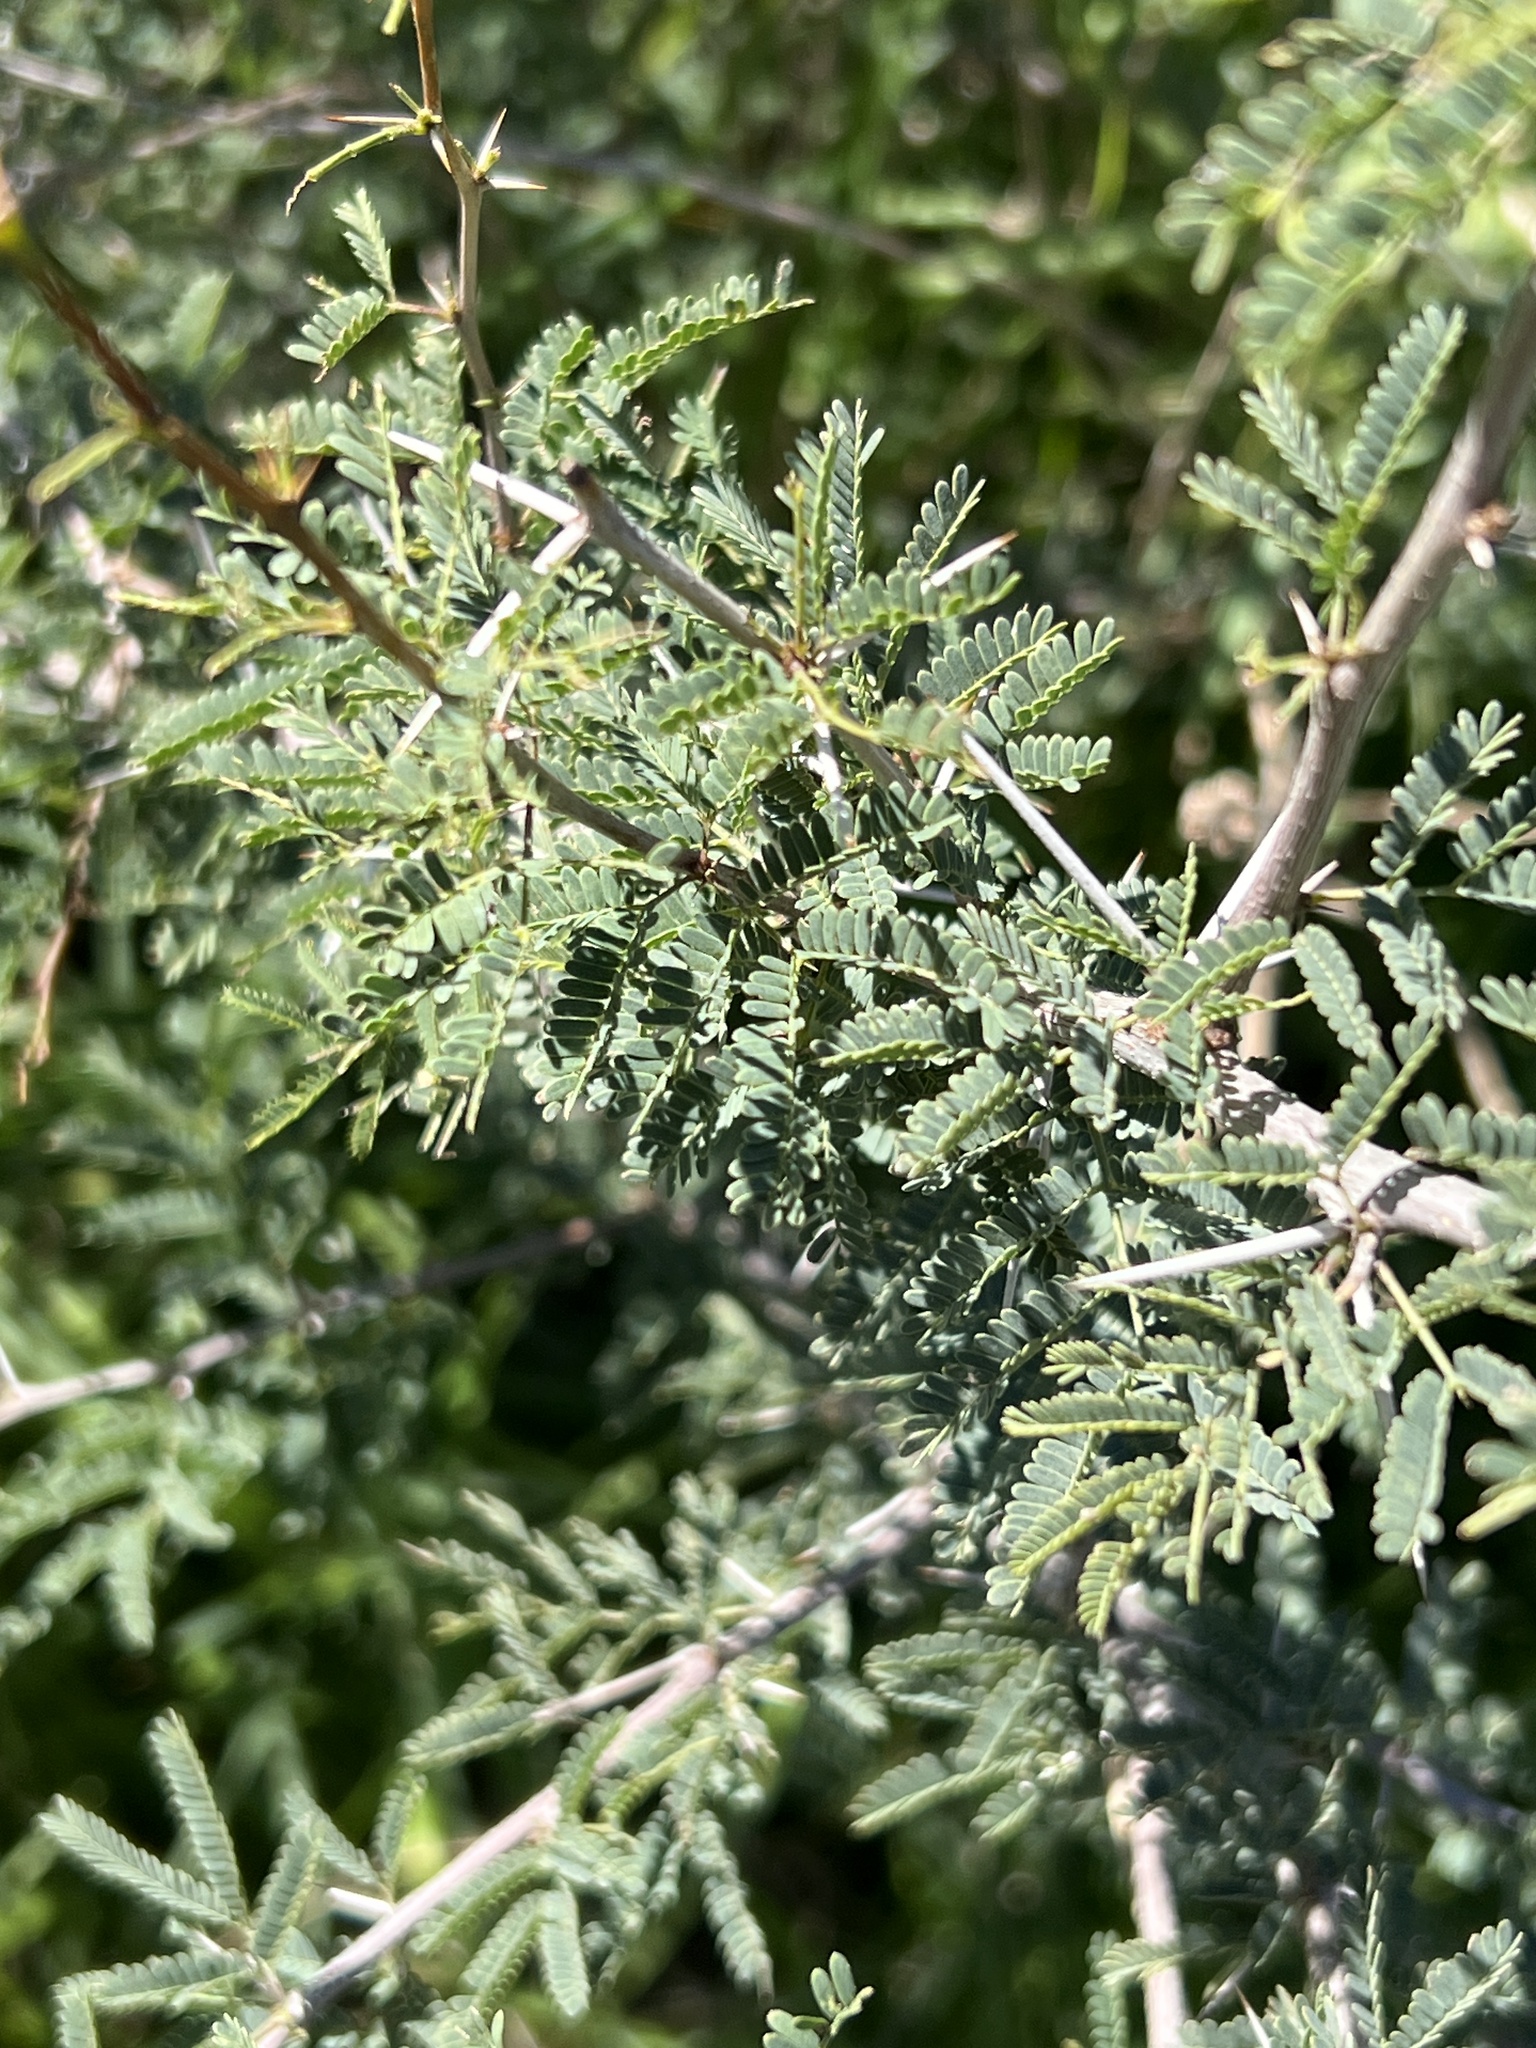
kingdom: Plantae
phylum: Tracheophyta
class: Magnoliopsida
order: Fabales
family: Fabaceae
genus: Vachellia
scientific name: Vachellia farnesiana
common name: Sweet acacia
